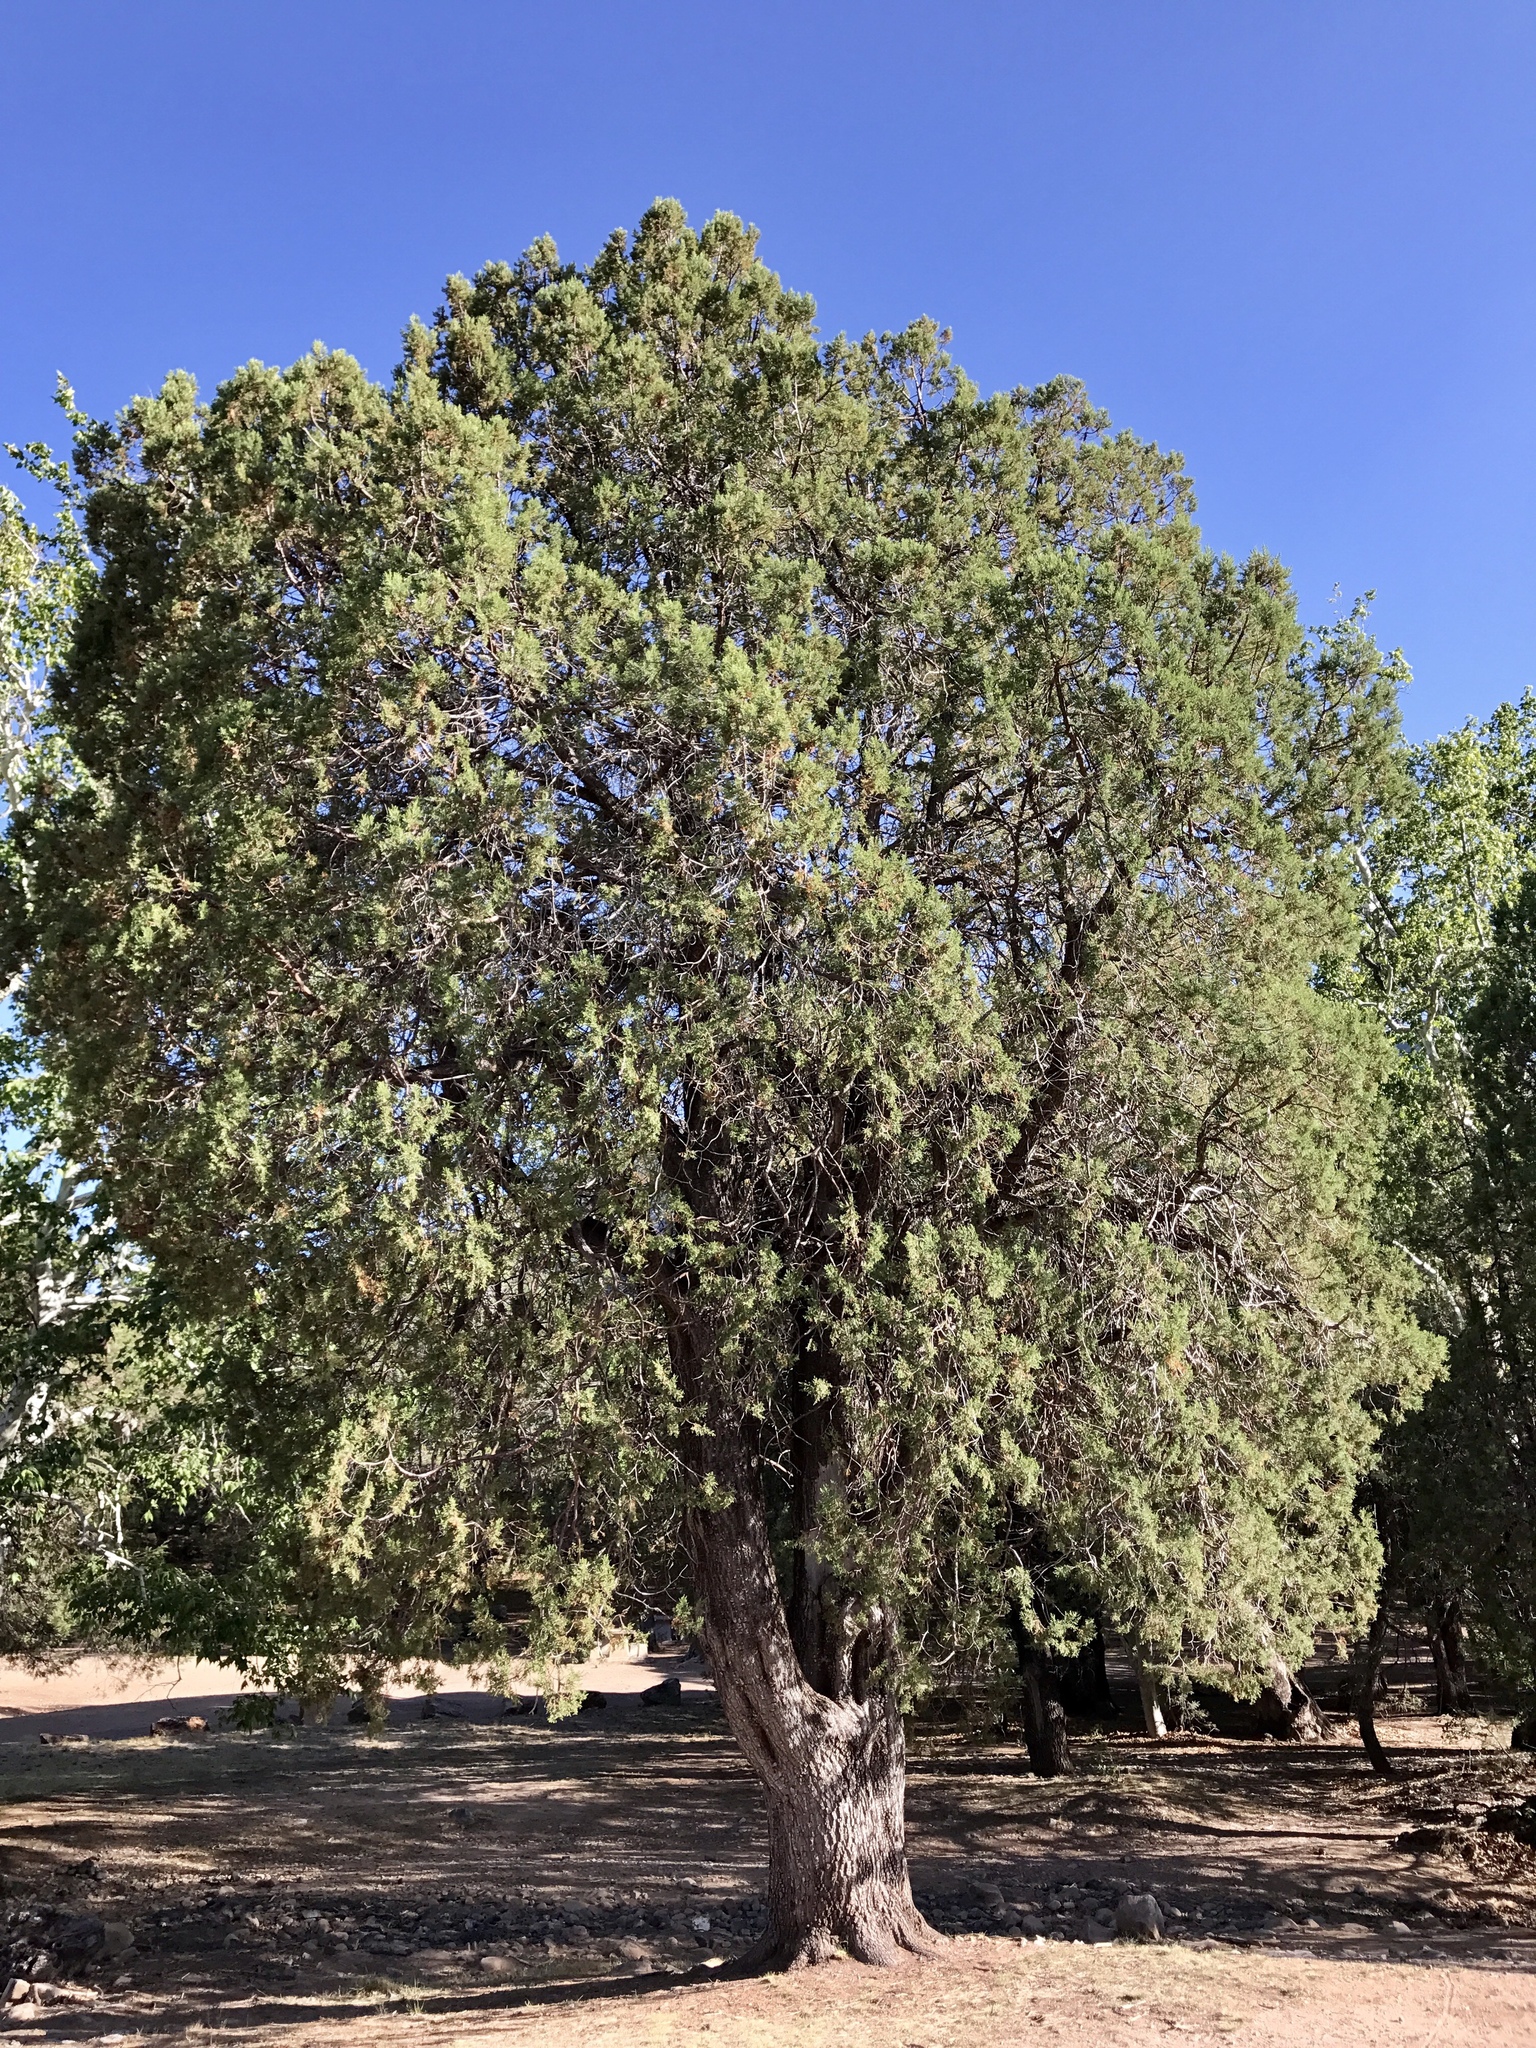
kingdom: Plantae
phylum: Tracheophyta
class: Pinopsida
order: Pinales
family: Cupressaceae
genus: Juniperus
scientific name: Juniperus deppeana
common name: Alligator juniper
